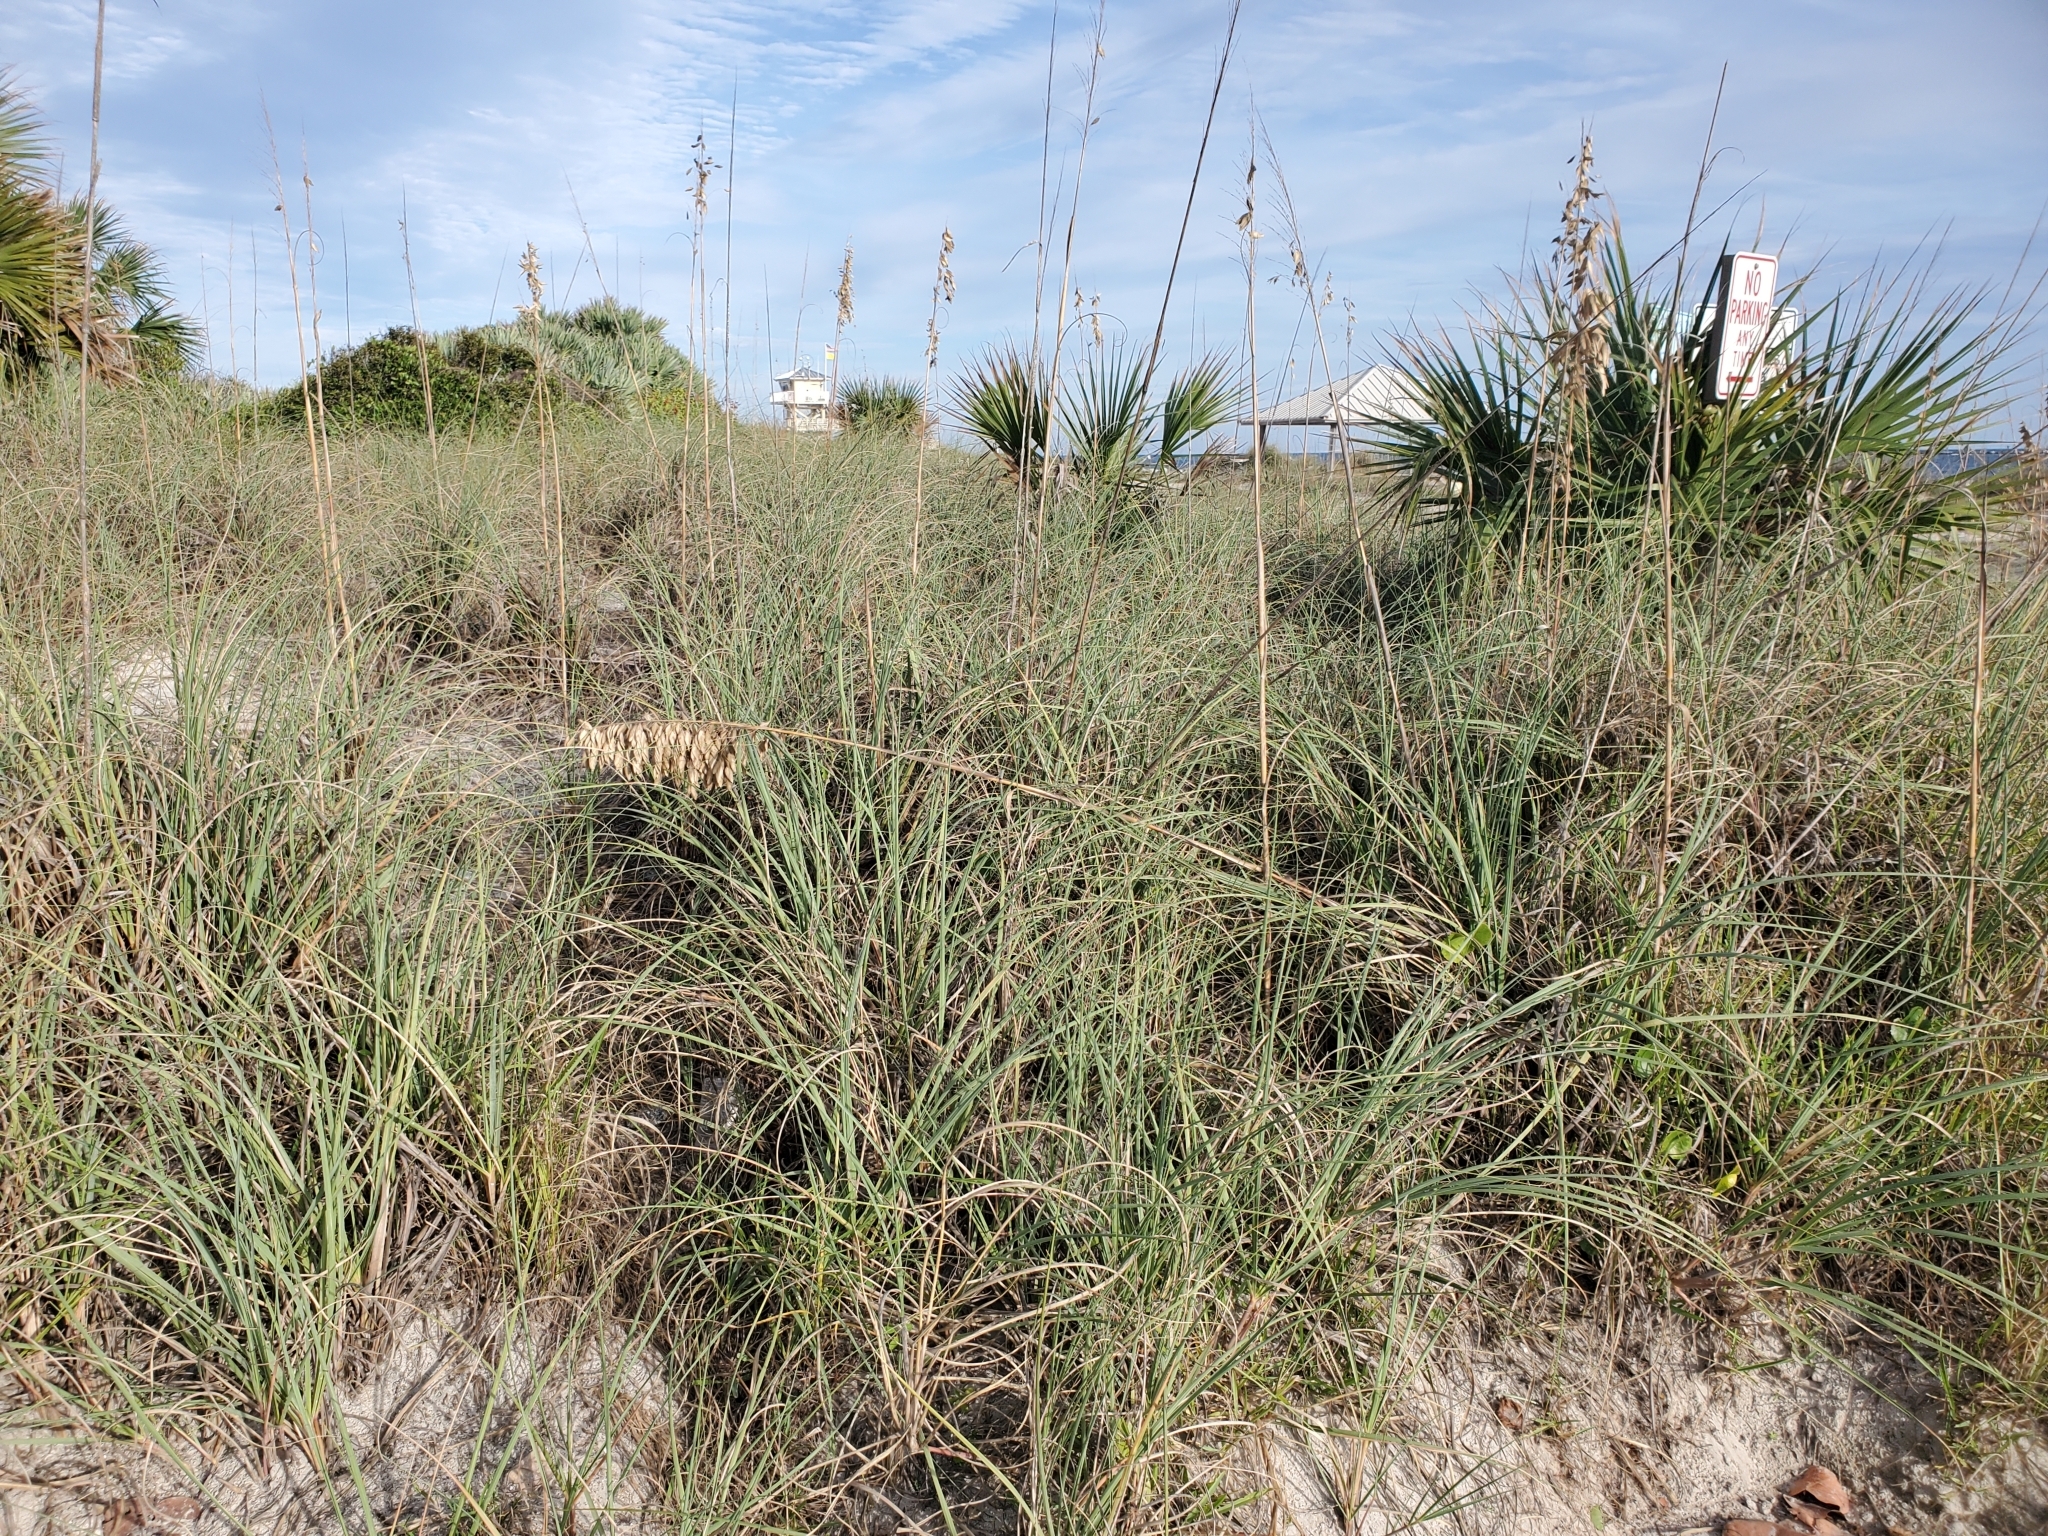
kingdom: Plantae
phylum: Tracheophyta
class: Liliopsida
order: Poales
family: Poaceae
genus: Uniola
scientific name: Uniola paniculata
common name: Seaside-oats
